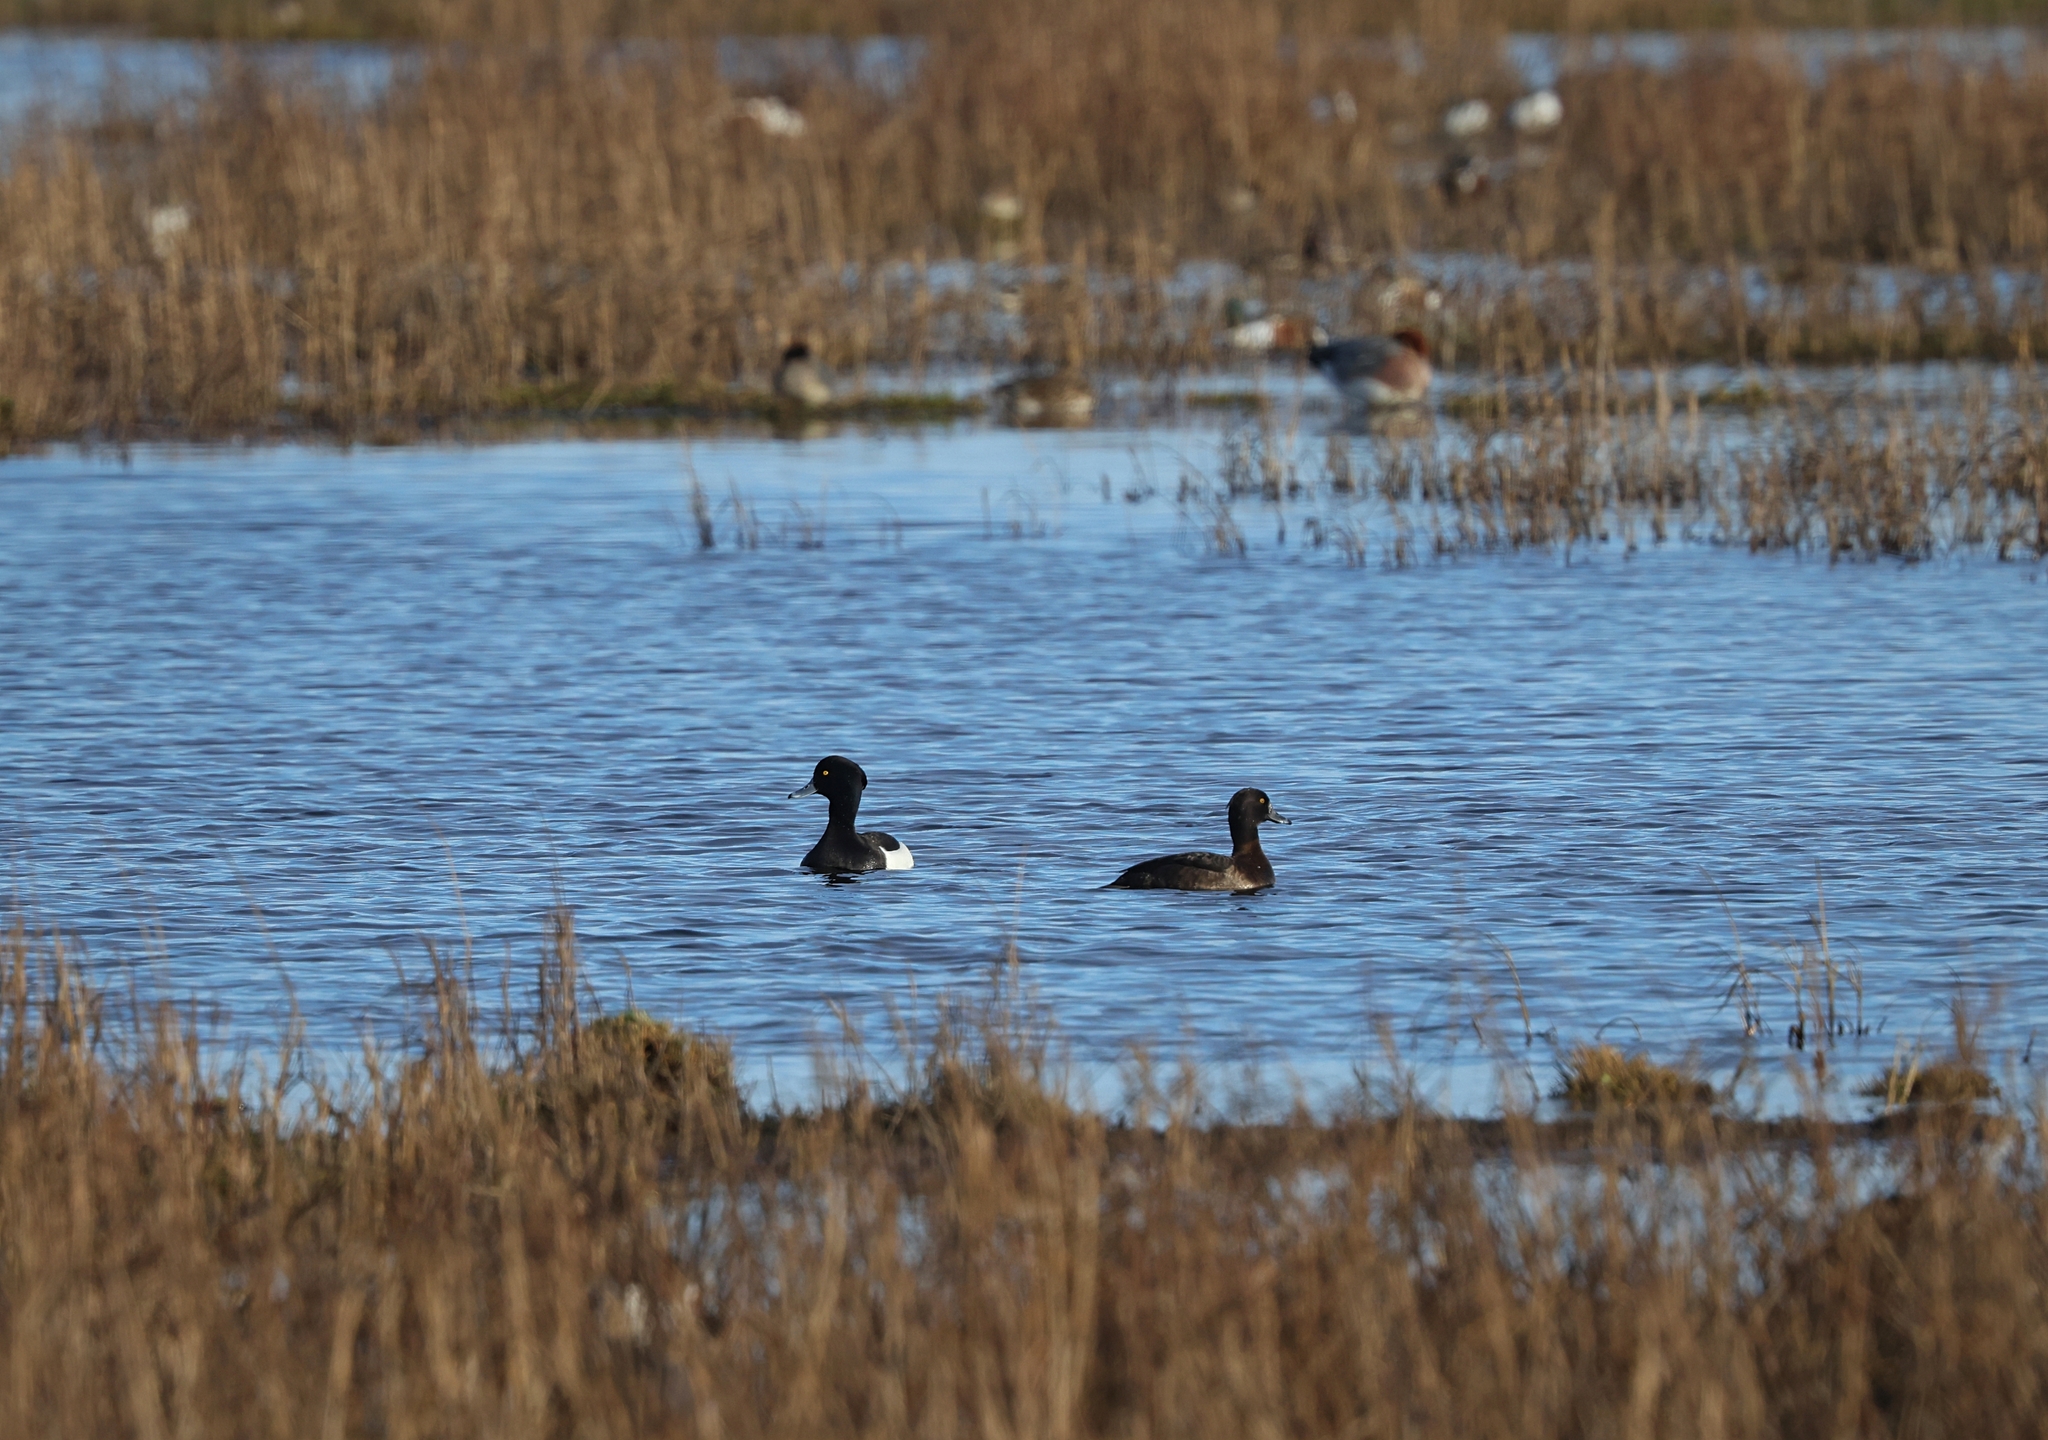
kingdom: Animalia
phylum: Chordata
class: Aves
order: Anseriformes
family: Anatidae
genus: Aythya
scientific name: Aythya fuligula
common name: Tufted duck
